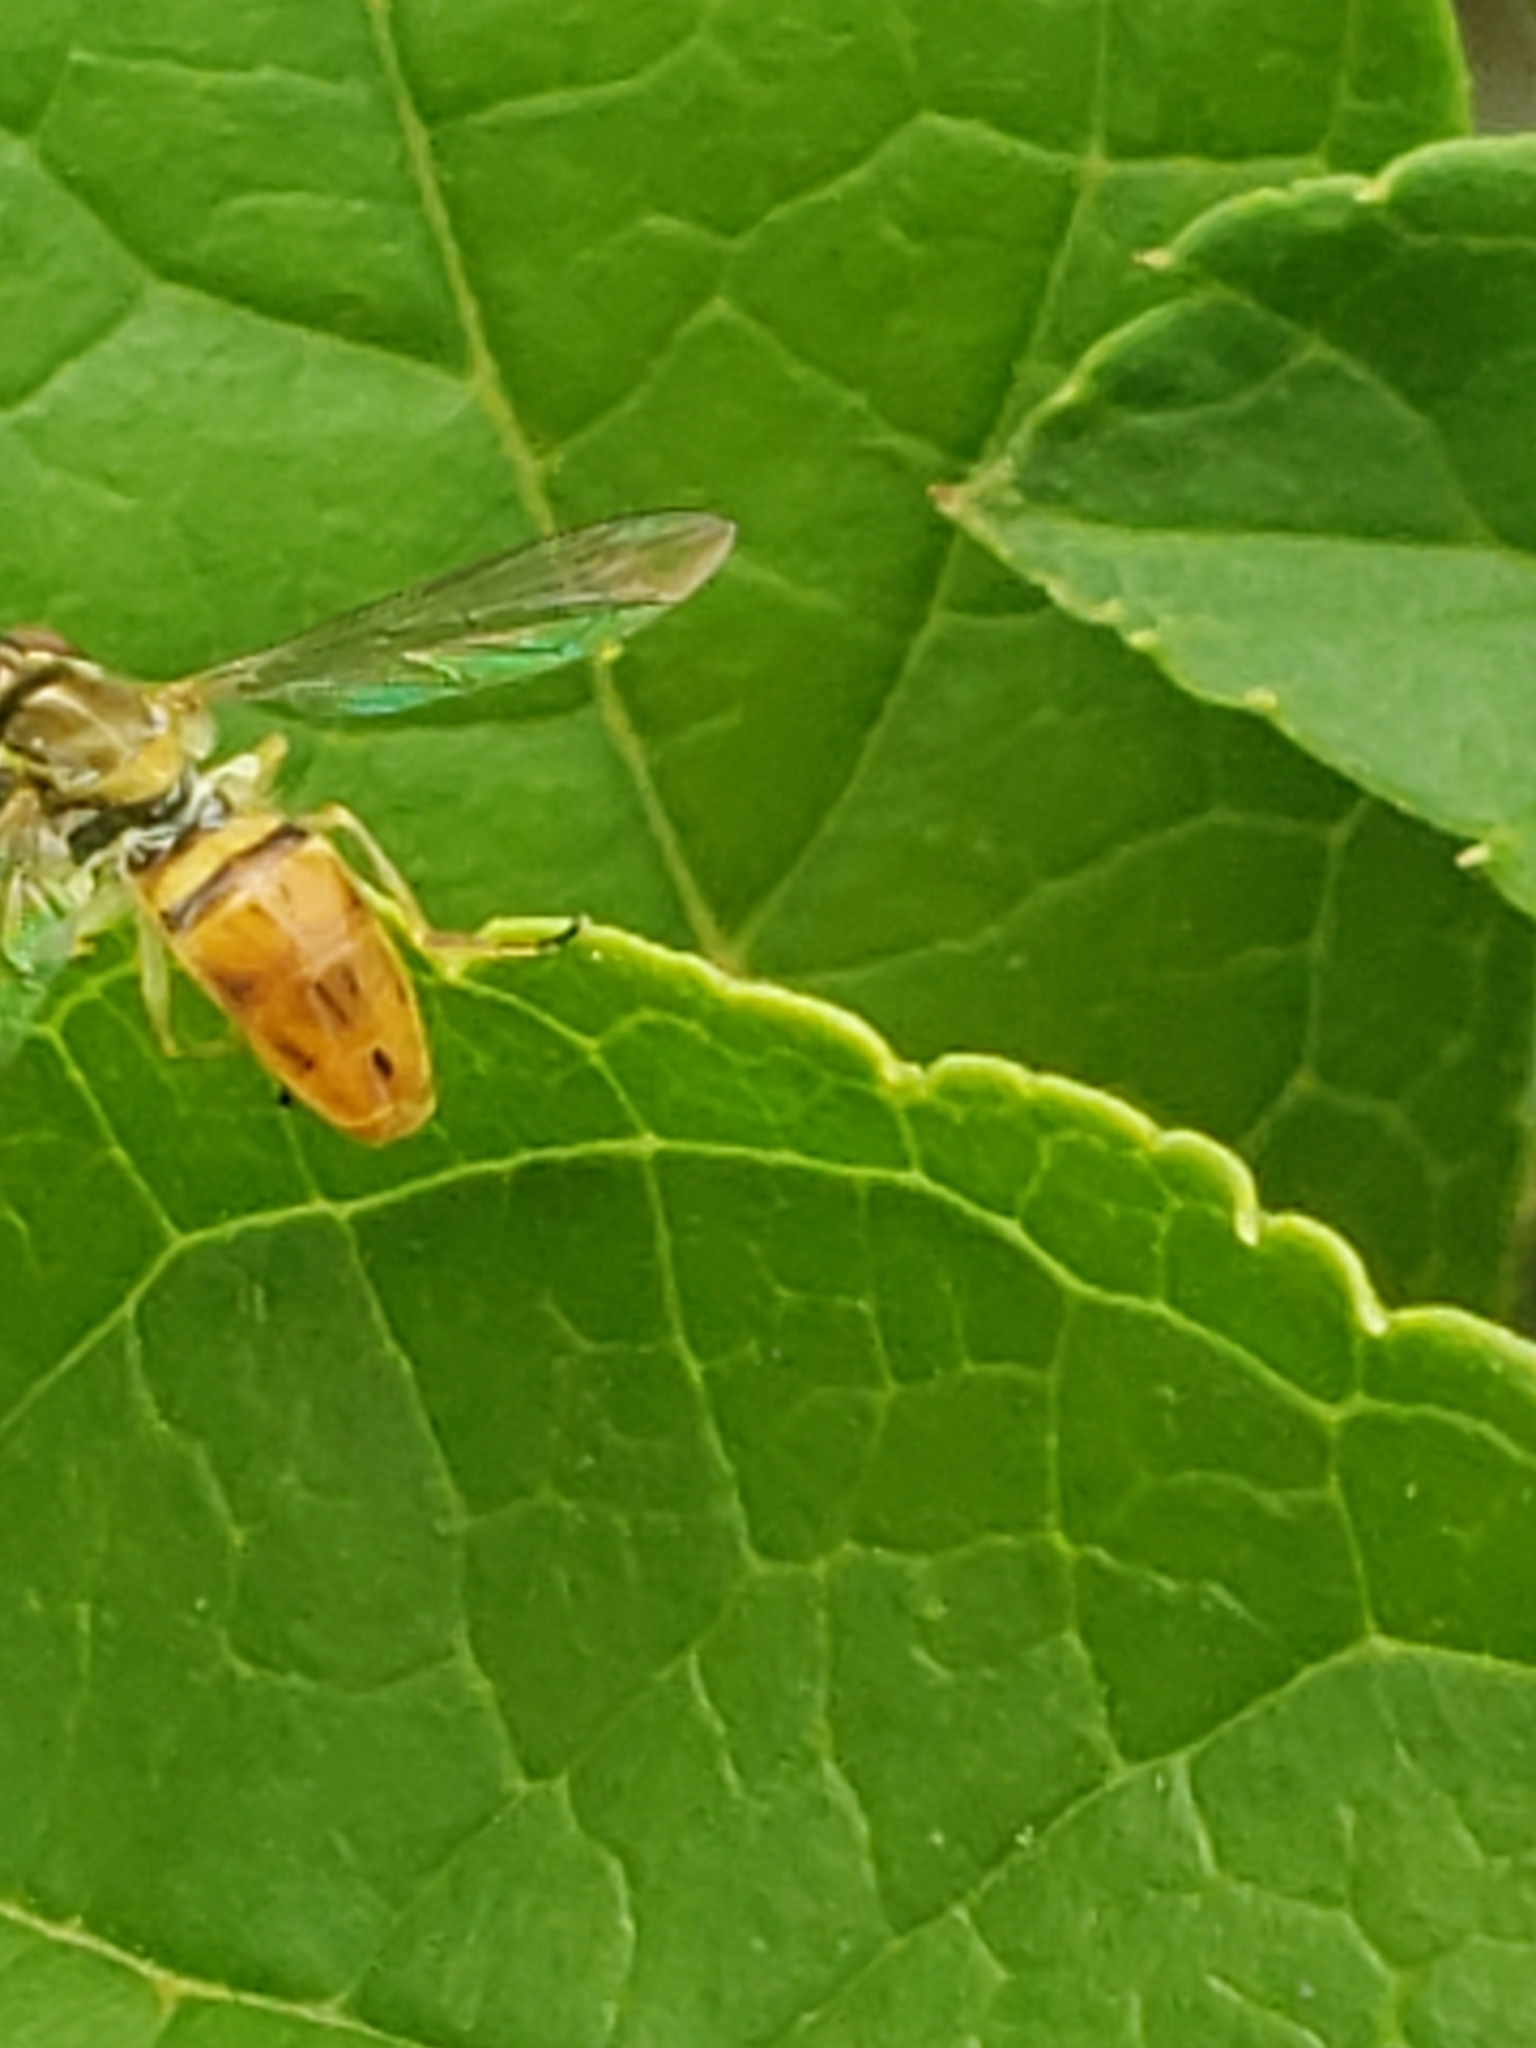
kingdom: Animalia
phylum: Arthropoda
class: Insecta
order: Diptera
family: Syrphidae
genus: Toxomerus
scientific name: Toxomerus marginatus
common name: Syrphid fly
